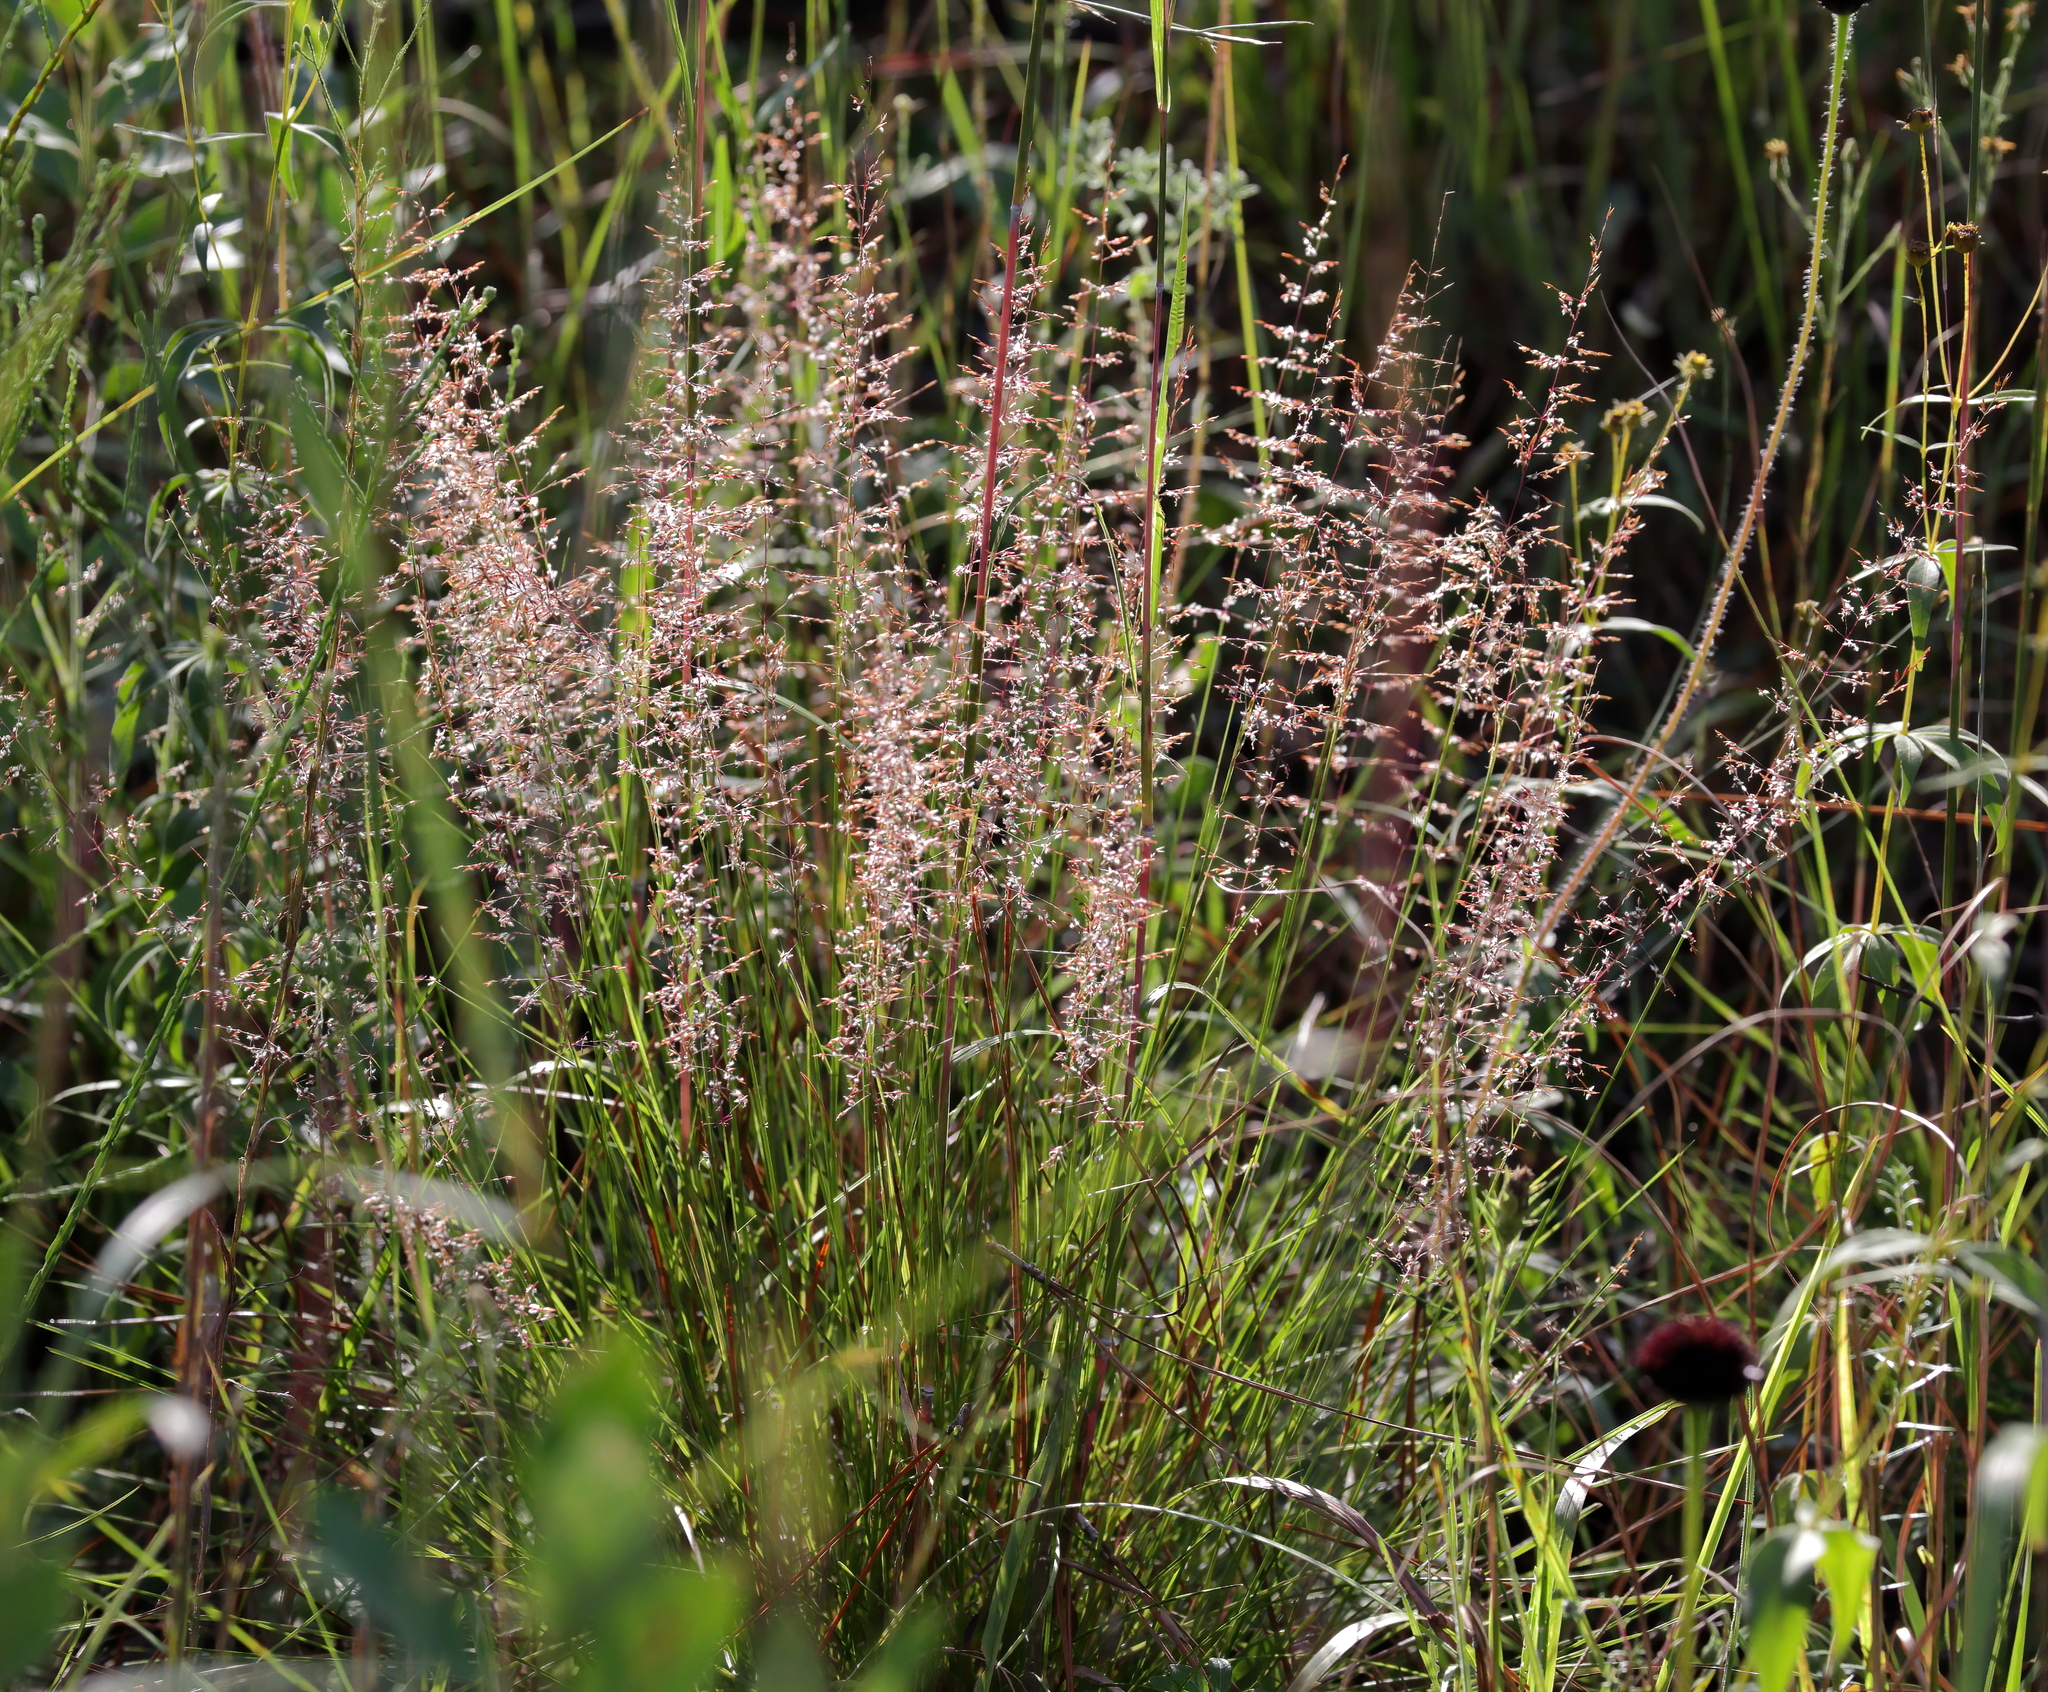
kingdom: Plantae
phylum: Tracheophyta
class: Liliopsida
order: Poales
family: Poaceae
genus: Sporobolus
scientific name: Sporobolus junceus
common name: Lizard grass
